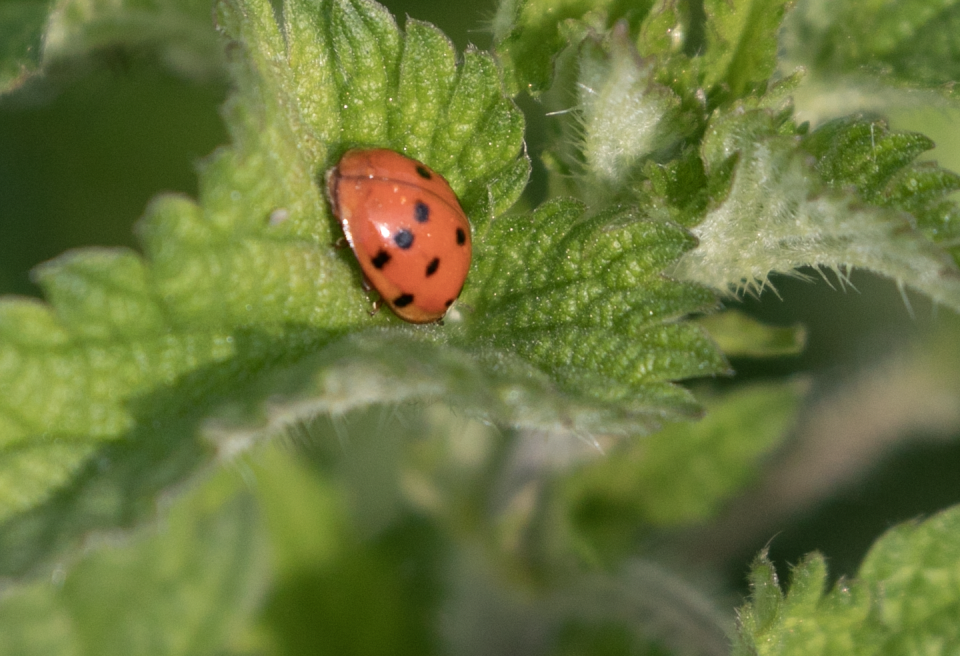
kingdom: Animalia
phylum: Arthropoda
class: Insecta
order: Coleoptera
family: Coccinellidae
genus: Harmonia
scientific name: Harmonia axyridis
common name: Harlequin ladybird
